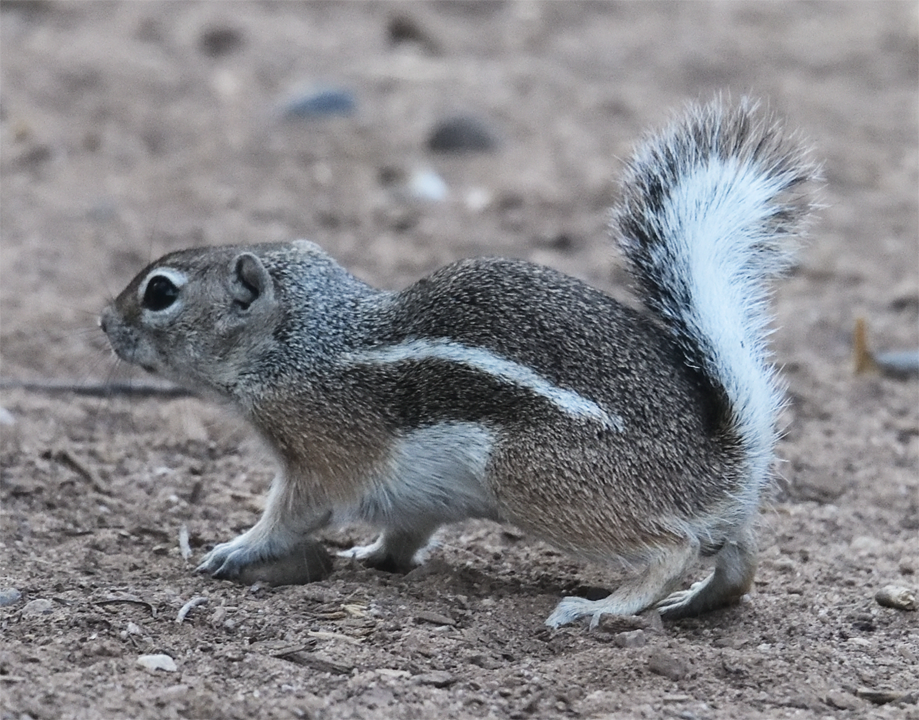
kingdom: Animalia
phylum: Chordata
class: Mammalia
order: Rodentia
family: Sciuridae
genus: Ammospermophilus
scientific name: Ammospermophilus leucurus
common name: White-tailed antelope squirrel
